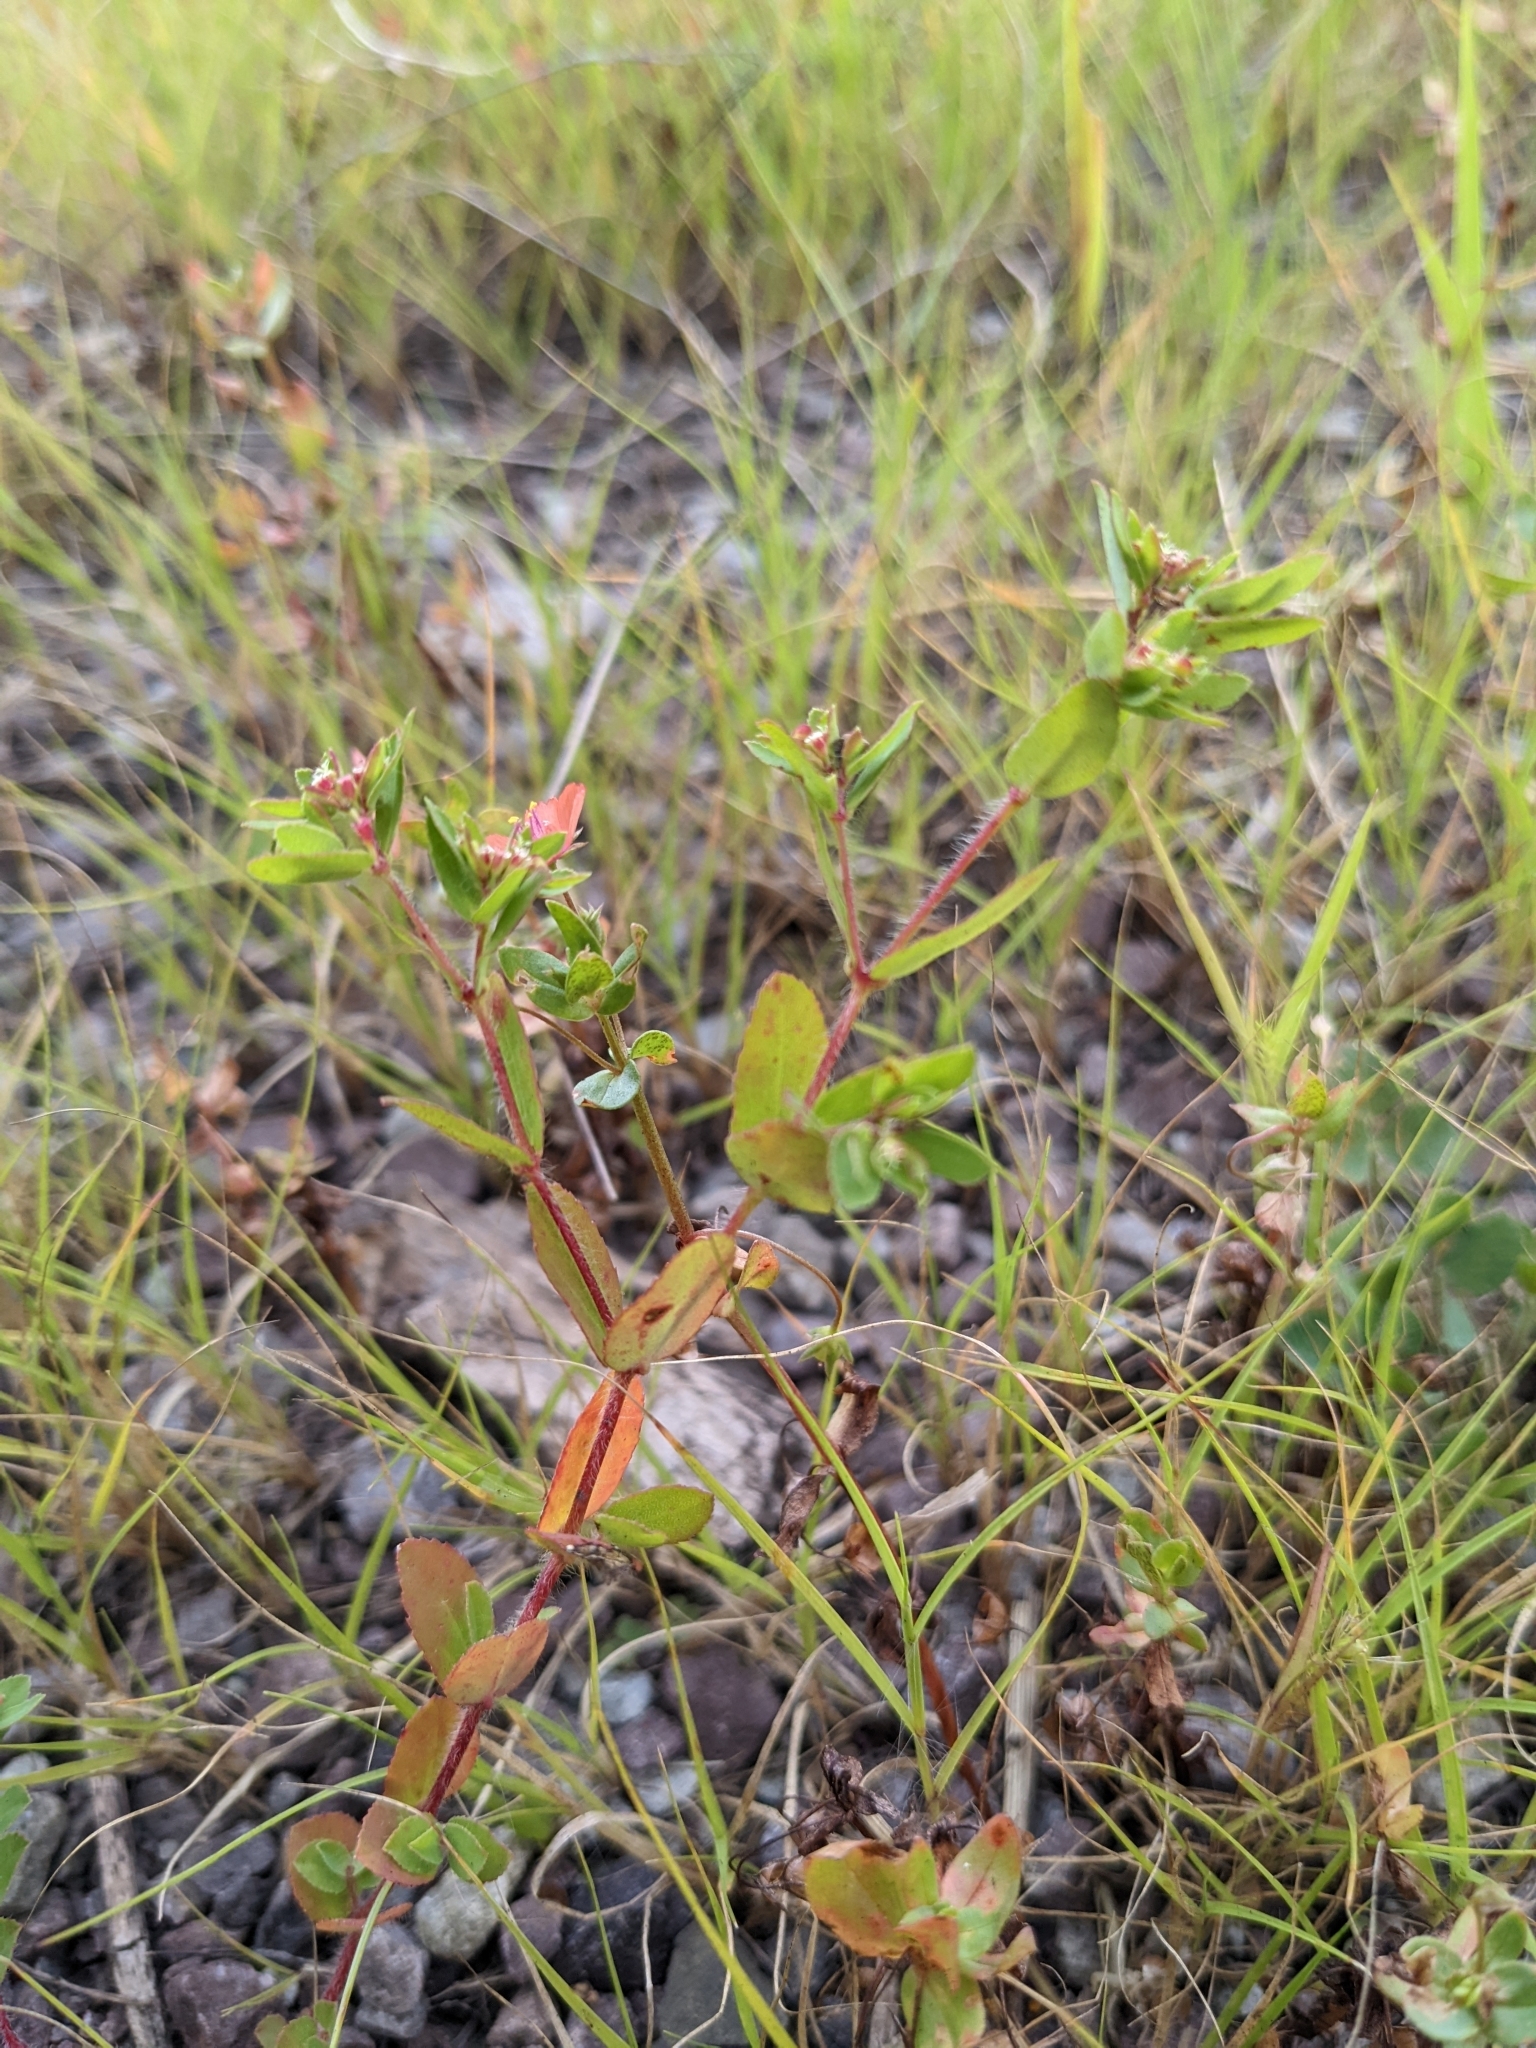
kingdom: Plantae
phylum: Tracheophyta
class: Magnoliopsida
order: Ericales
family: Primulaceae
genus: Lysimachia
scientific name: Lysimachia arvensis
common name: Scarlet pimpernel
